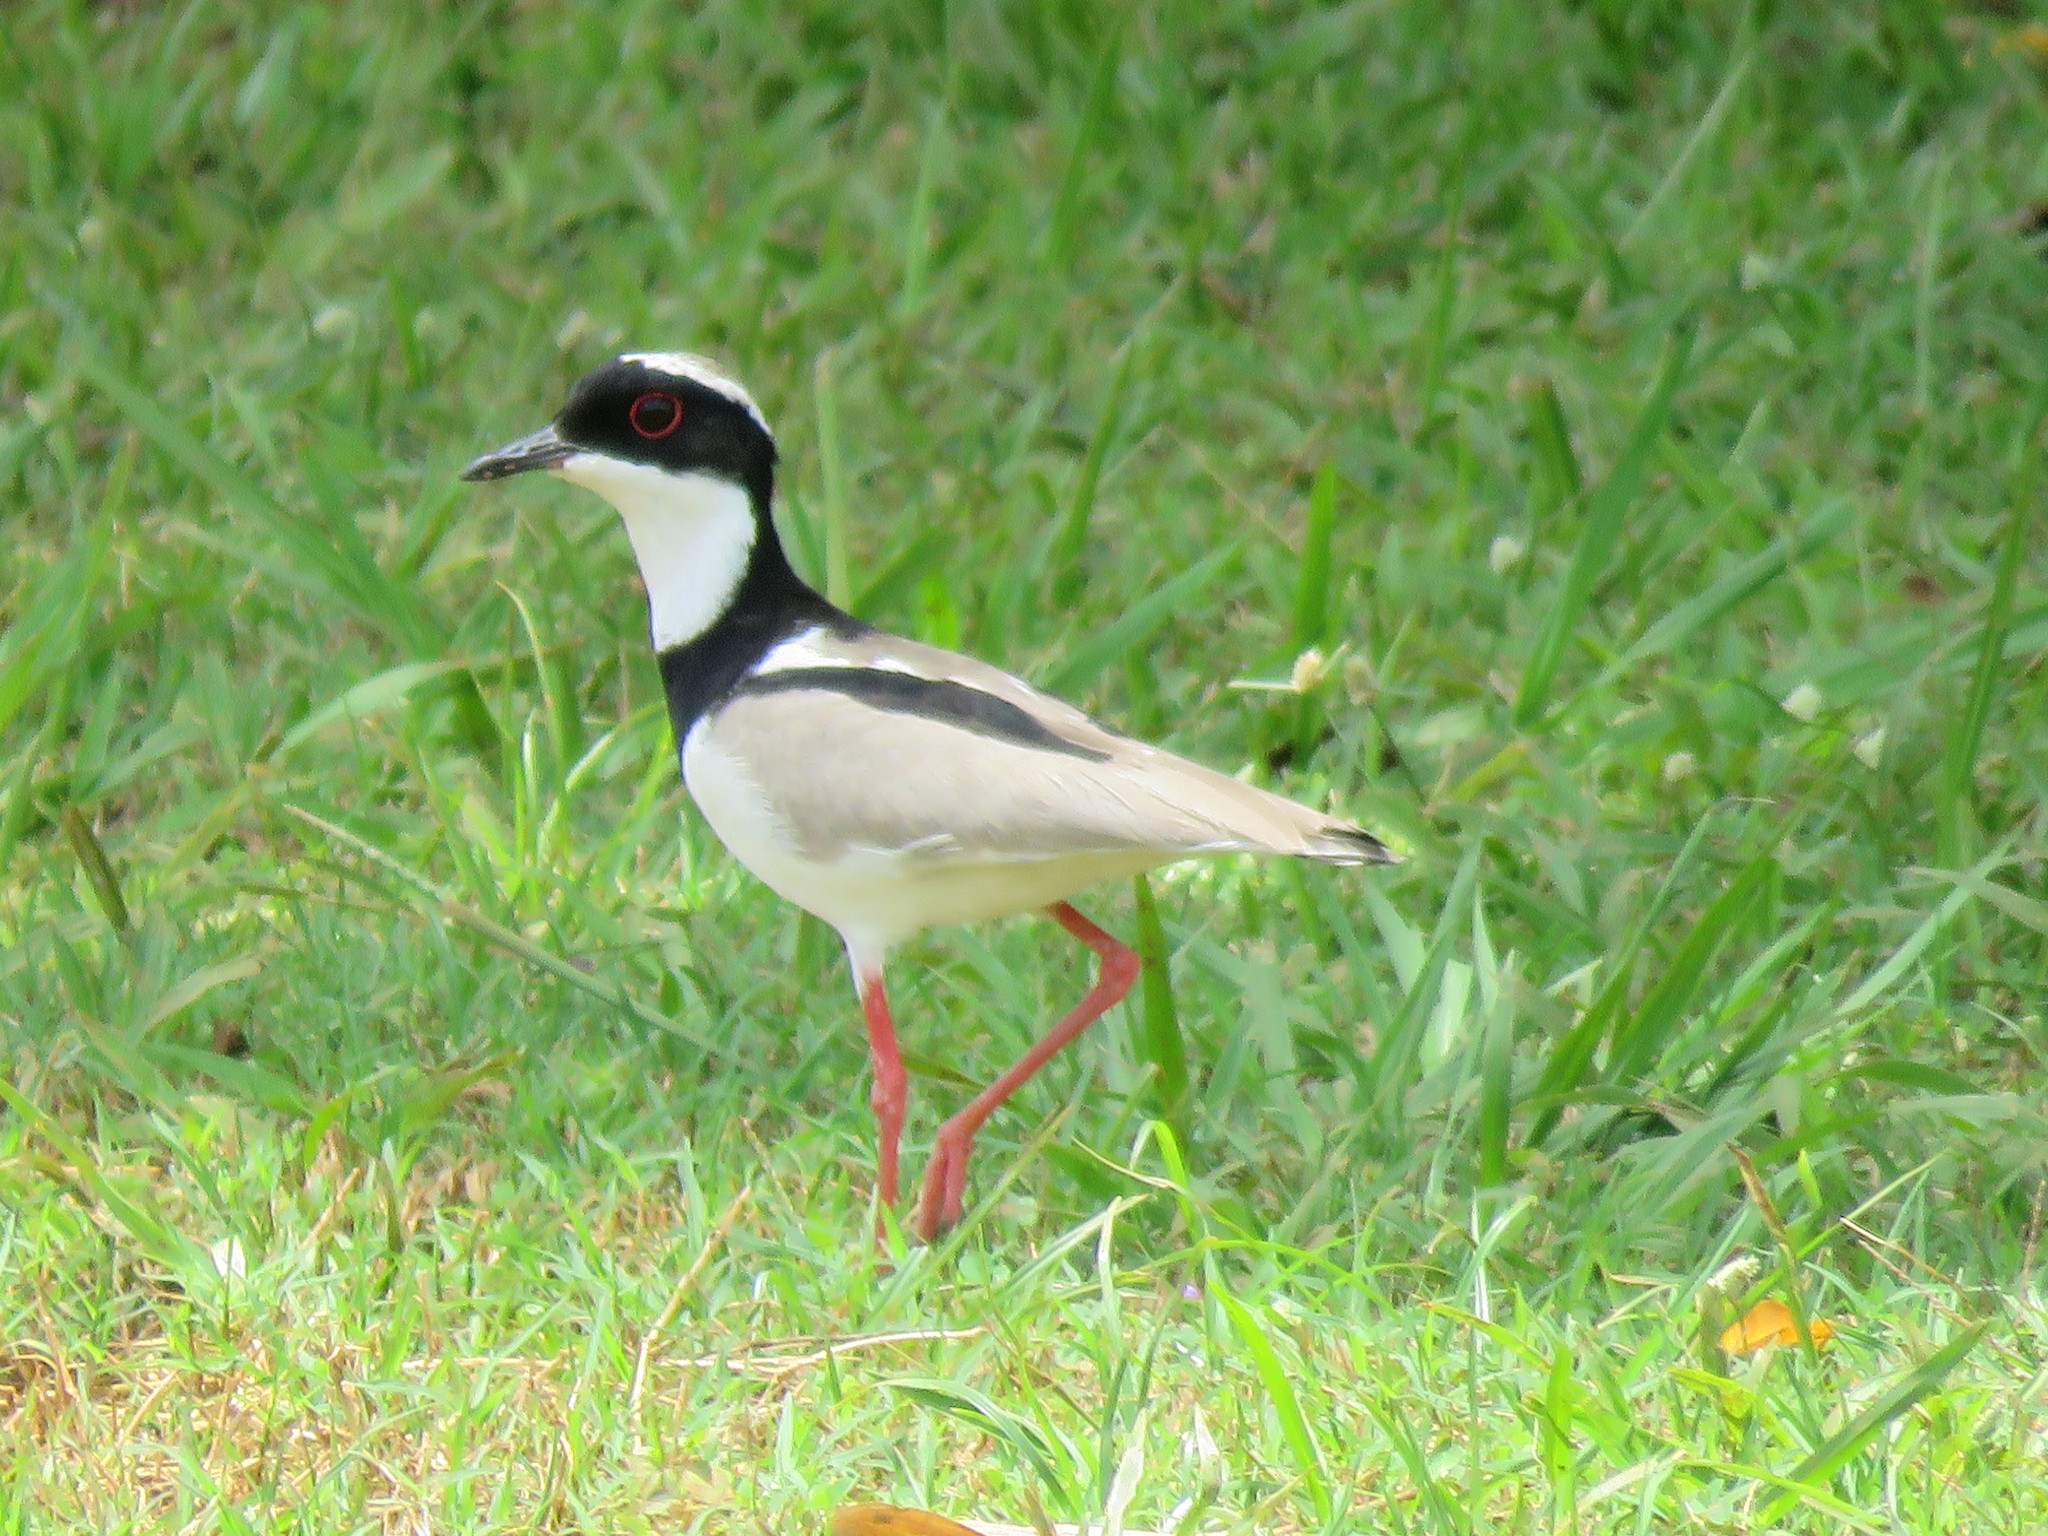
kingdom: Animalia
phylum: Chordata
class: Aves
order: Charadriiformes
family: Charadriidae
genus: Hoploxypterus
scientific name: Hoploxypterus cayanus
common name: Pied plover
